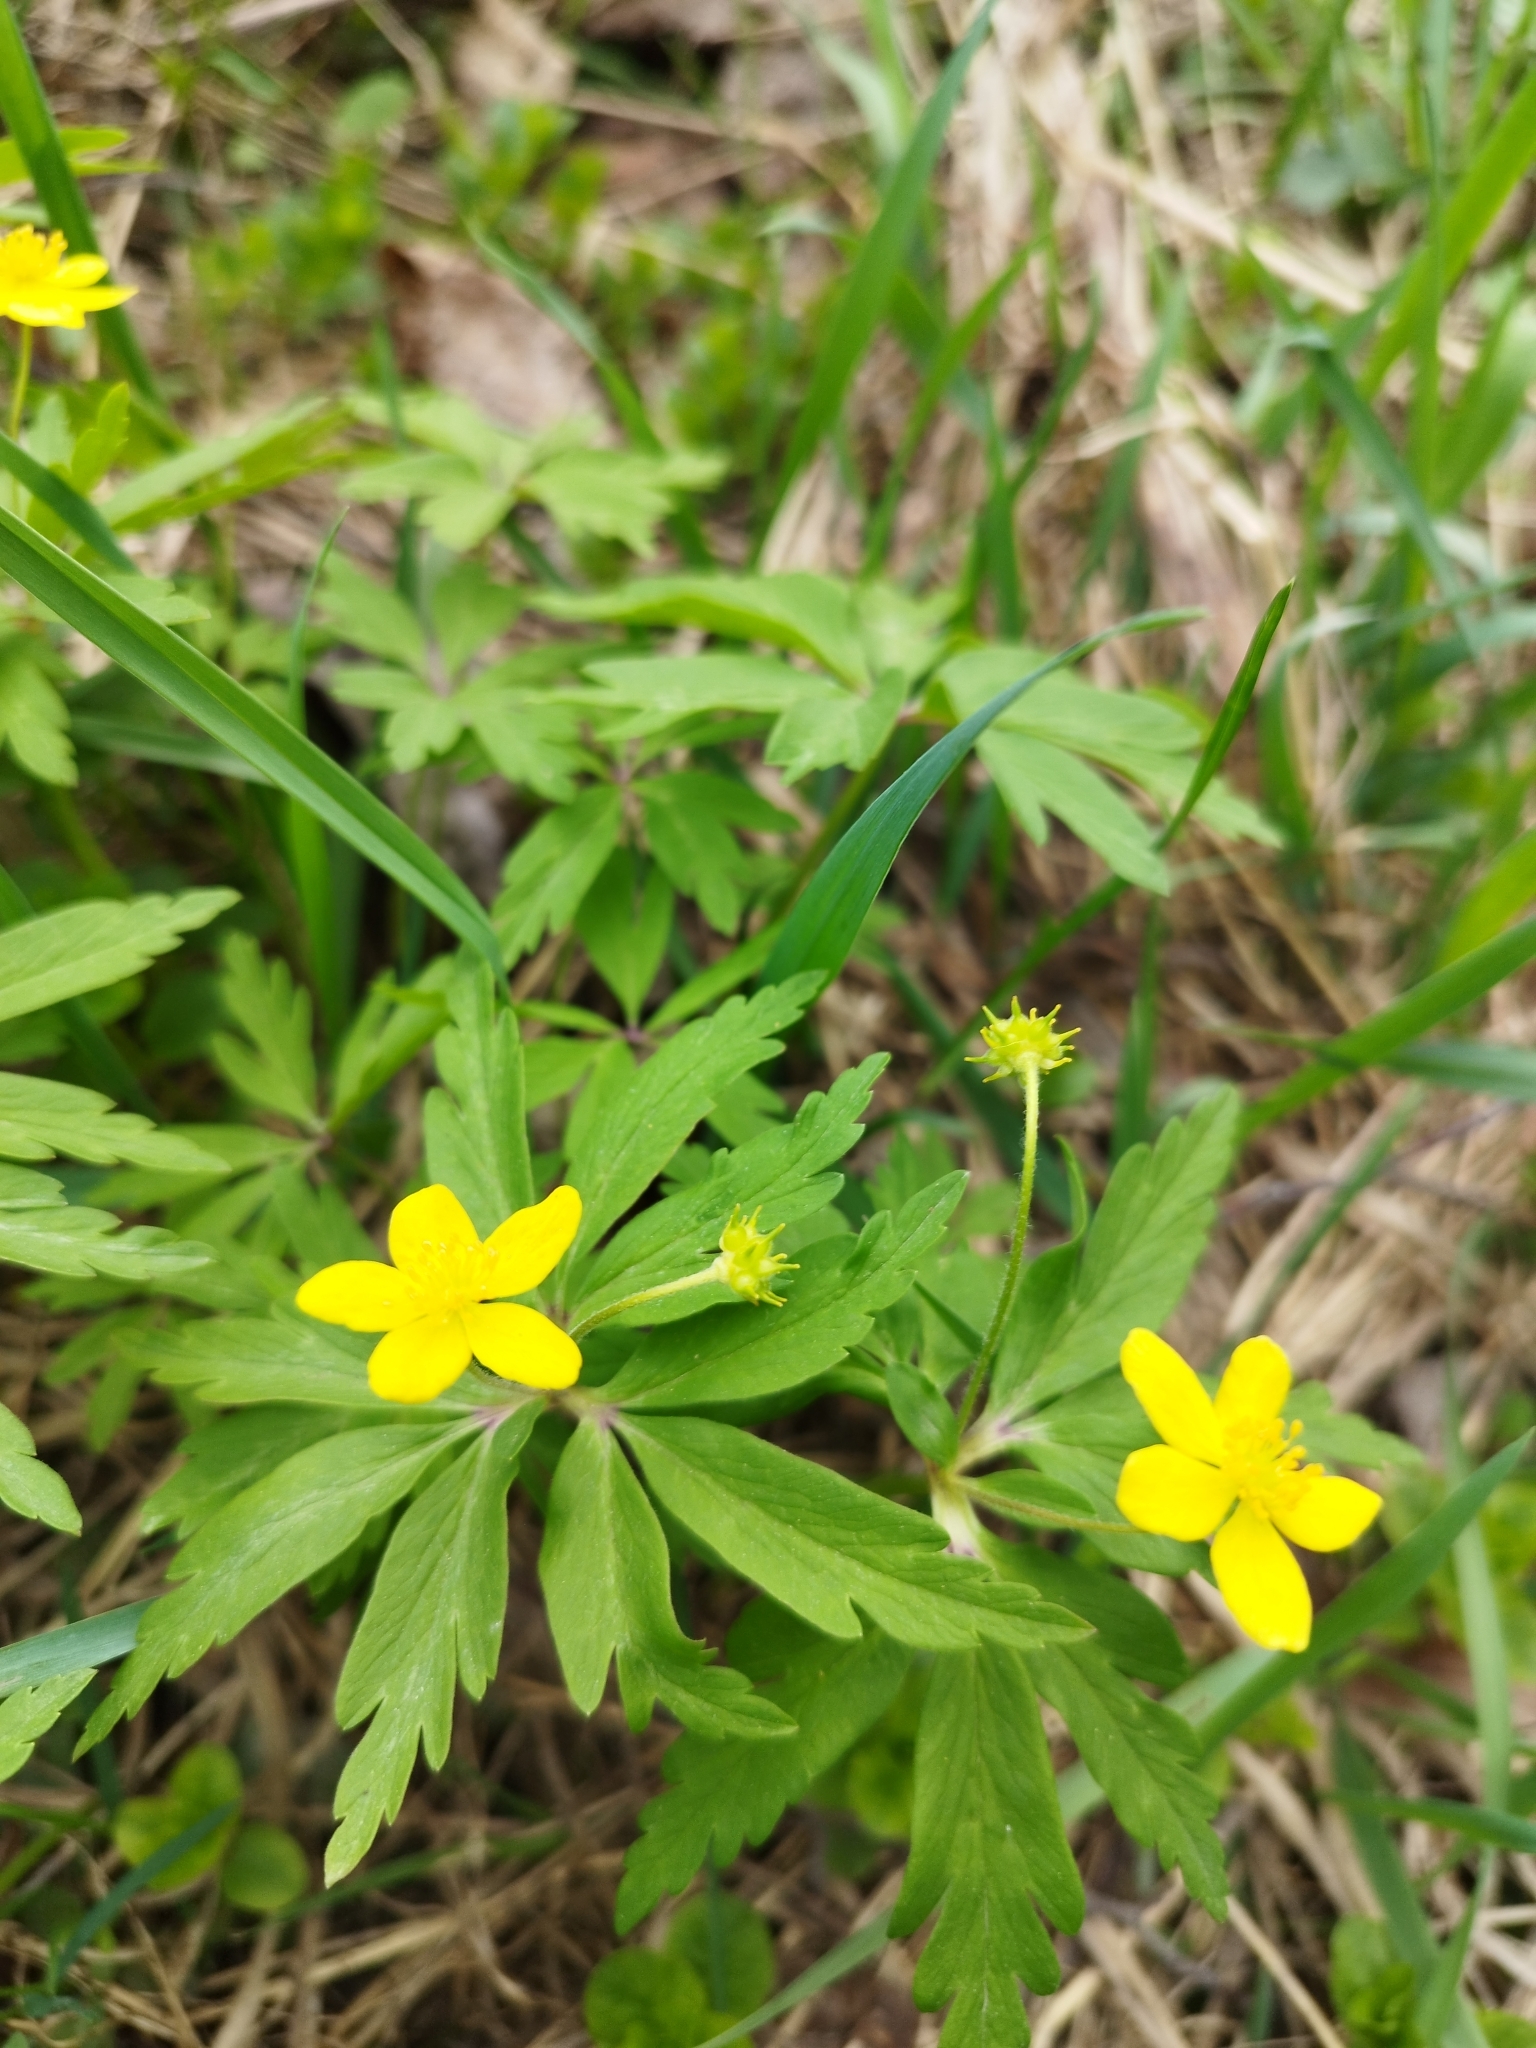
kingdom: Plantae
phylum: Tracheophyta
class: Magnoliopsida
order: Ranunculales
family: Ranunculaceae
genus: Anemone
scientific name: Anemone ranunculoides
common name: Yellow anemone
